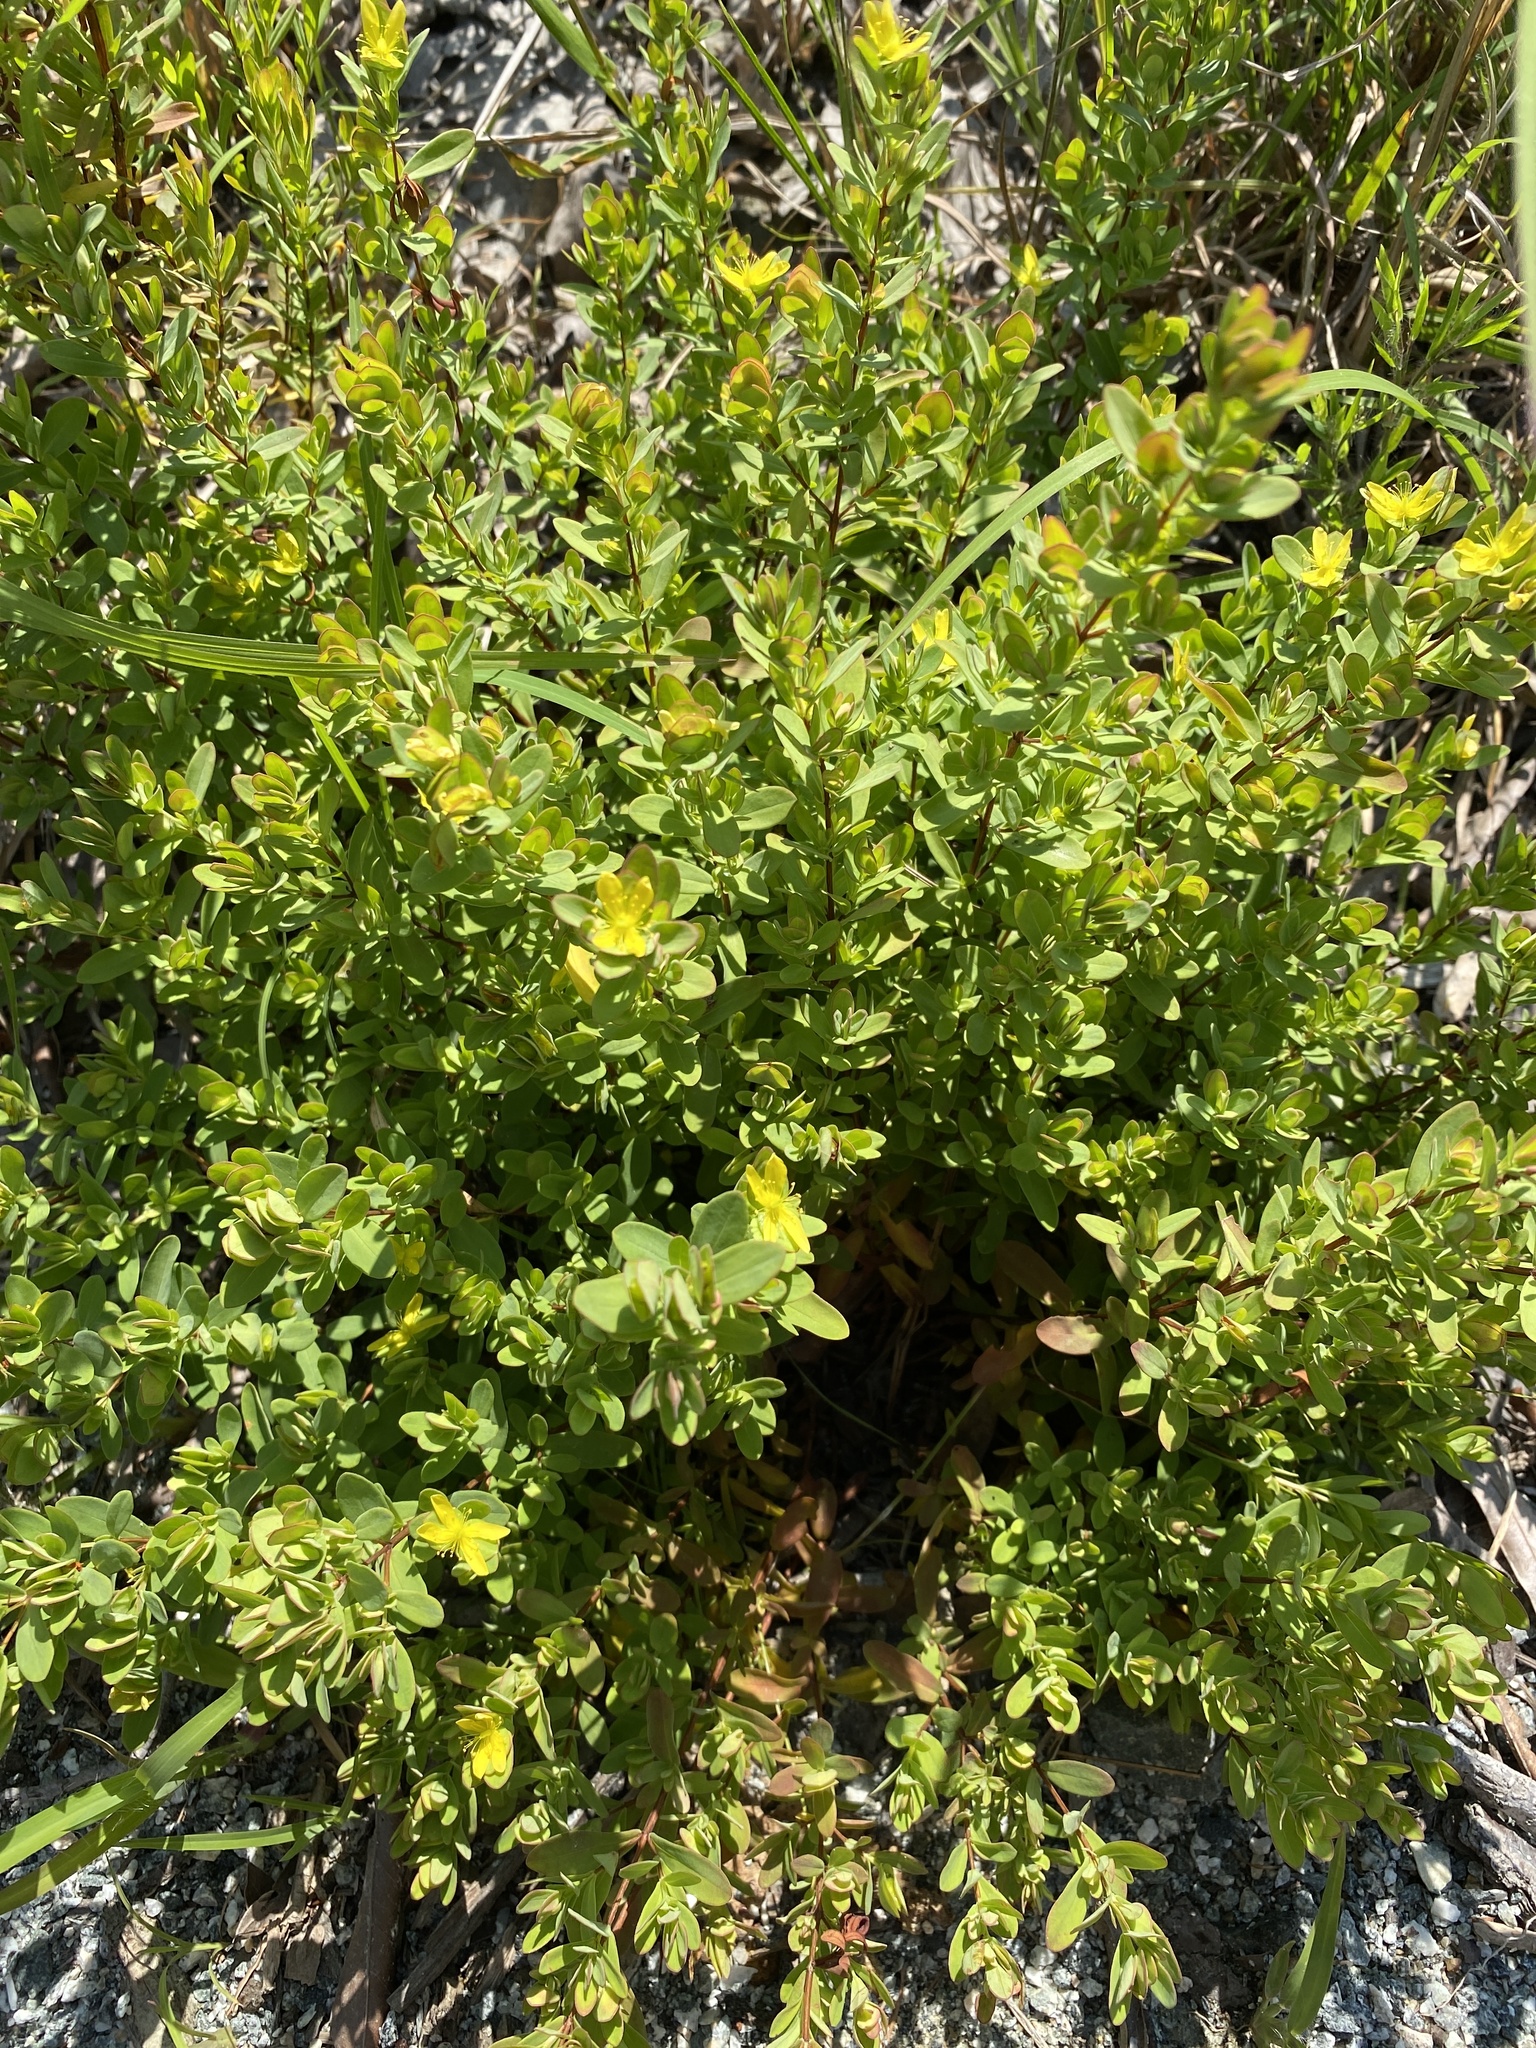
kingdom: Plantae
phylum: Tracheophyta
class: Magnoliopsida
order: Malpighiales
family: Hypericaceae
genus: Hypericum
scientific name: Hypericum hypericoides
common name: St. andrew's cross
